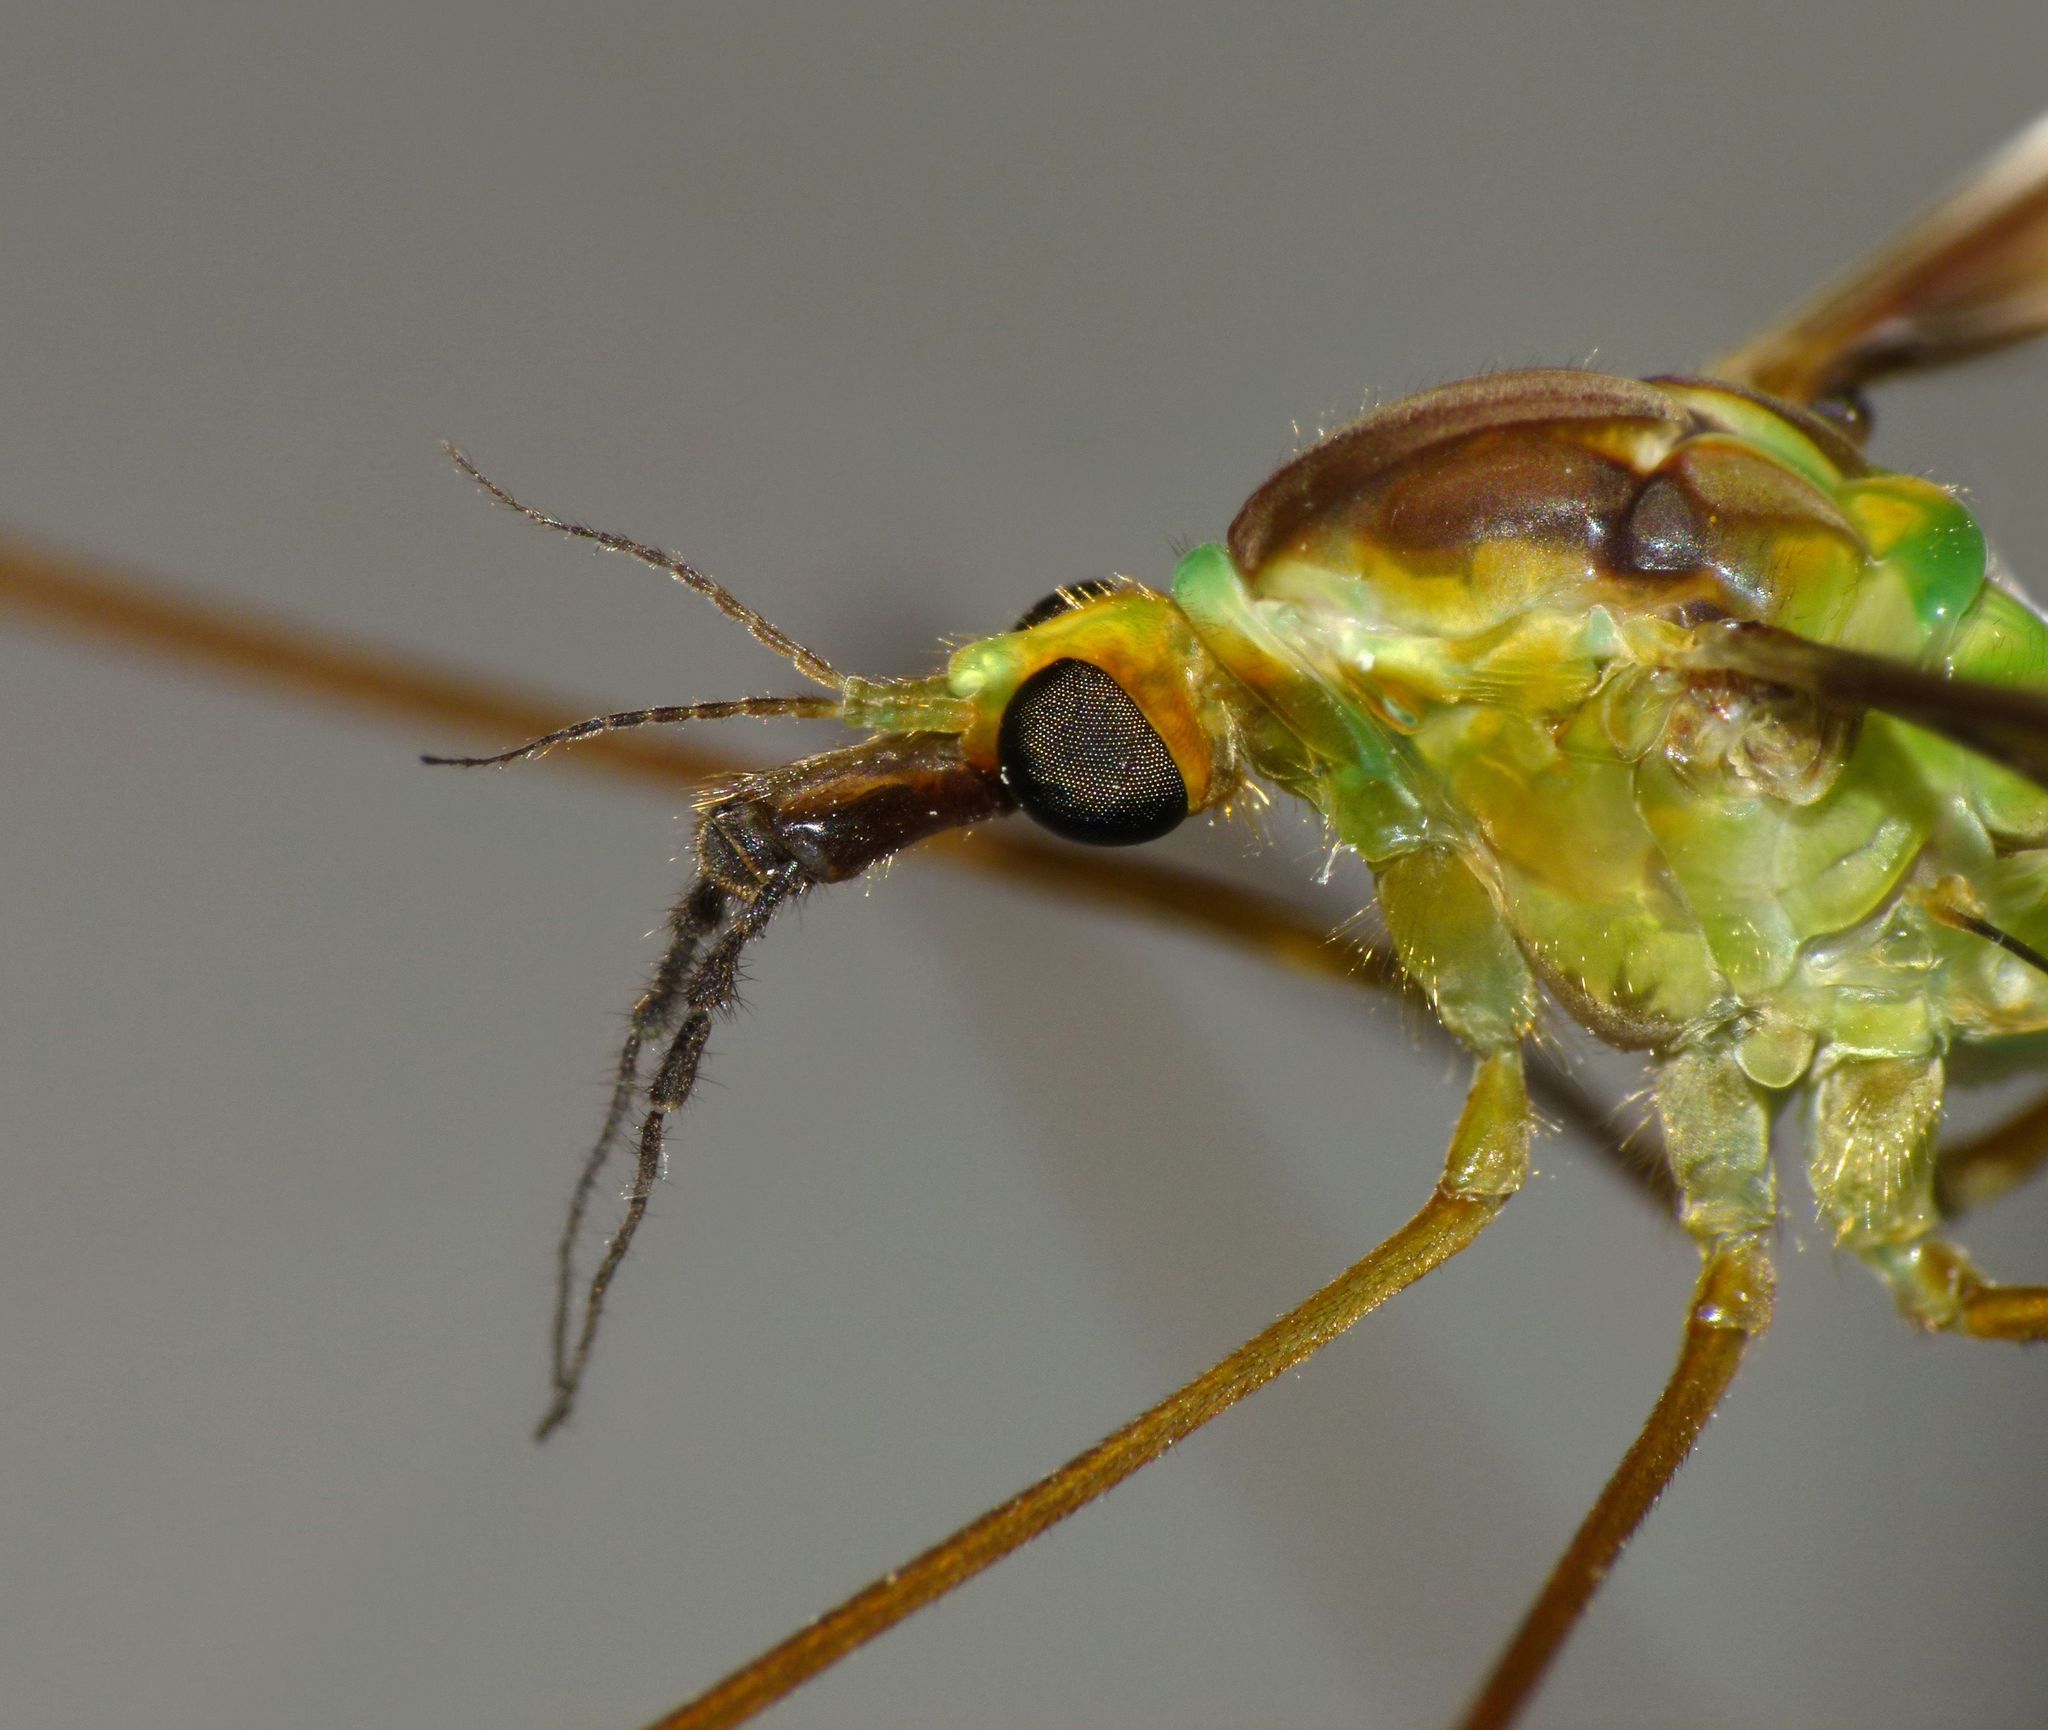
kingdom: Animalia
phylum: Arthropoda
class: Insecta
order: Diptera
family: Tipulidae
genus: Leptotarsus
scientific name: Leptotarsus albistigma
